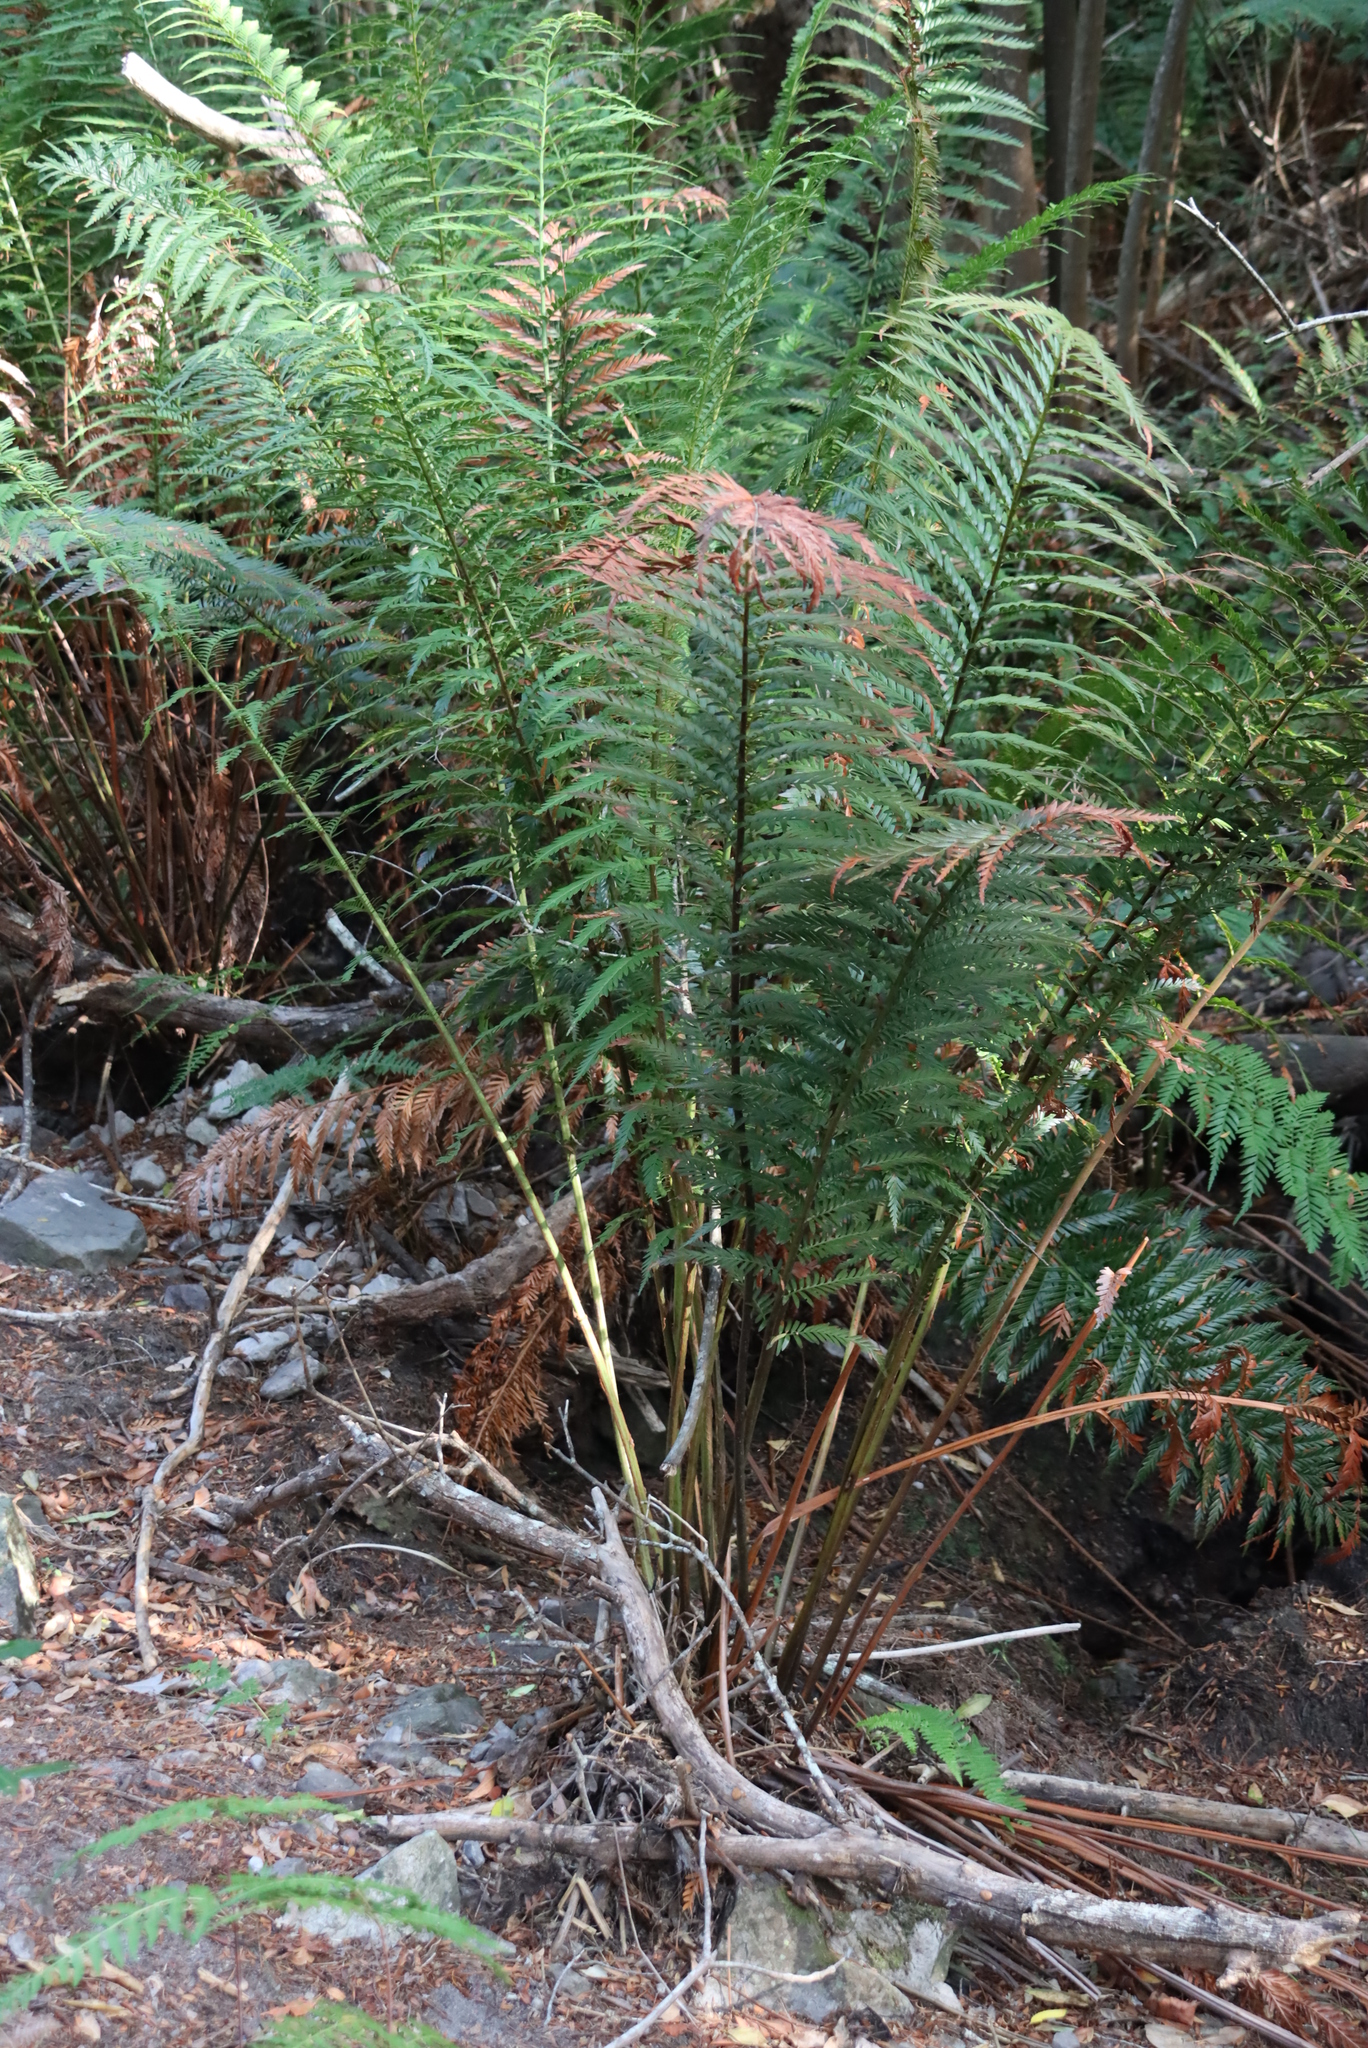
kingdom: Plantae
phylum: Tracheophyta
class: Polypodiopsida
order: Osmundales
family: Osmundaceae
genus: Todea
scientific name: Todea barbara
